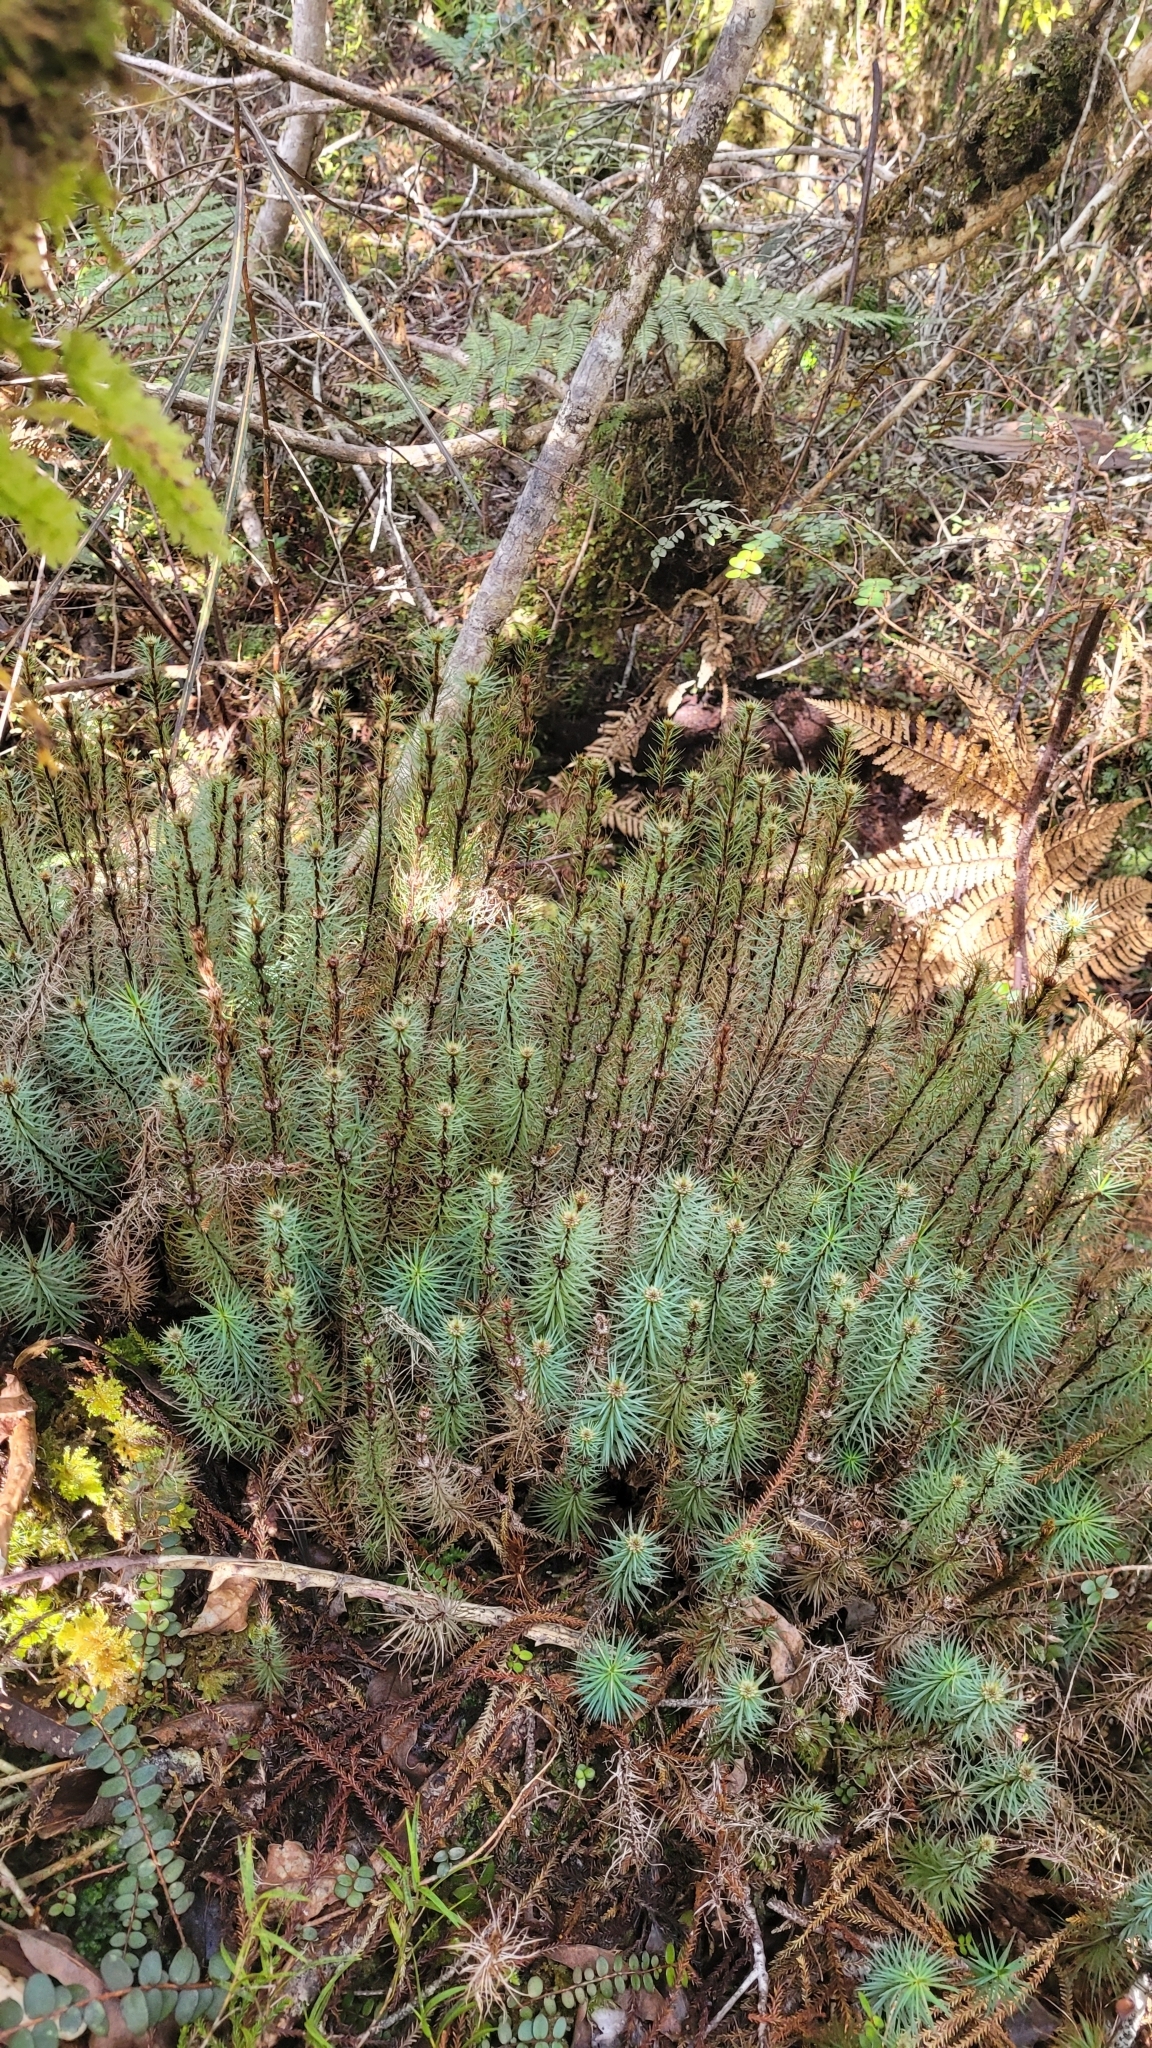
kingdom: Plantae
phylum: Bryophyta
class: Polytrichopsida
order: Polytrichales
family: Polytrichaceae
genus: Dawsonia
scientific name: Dawsonia superba
